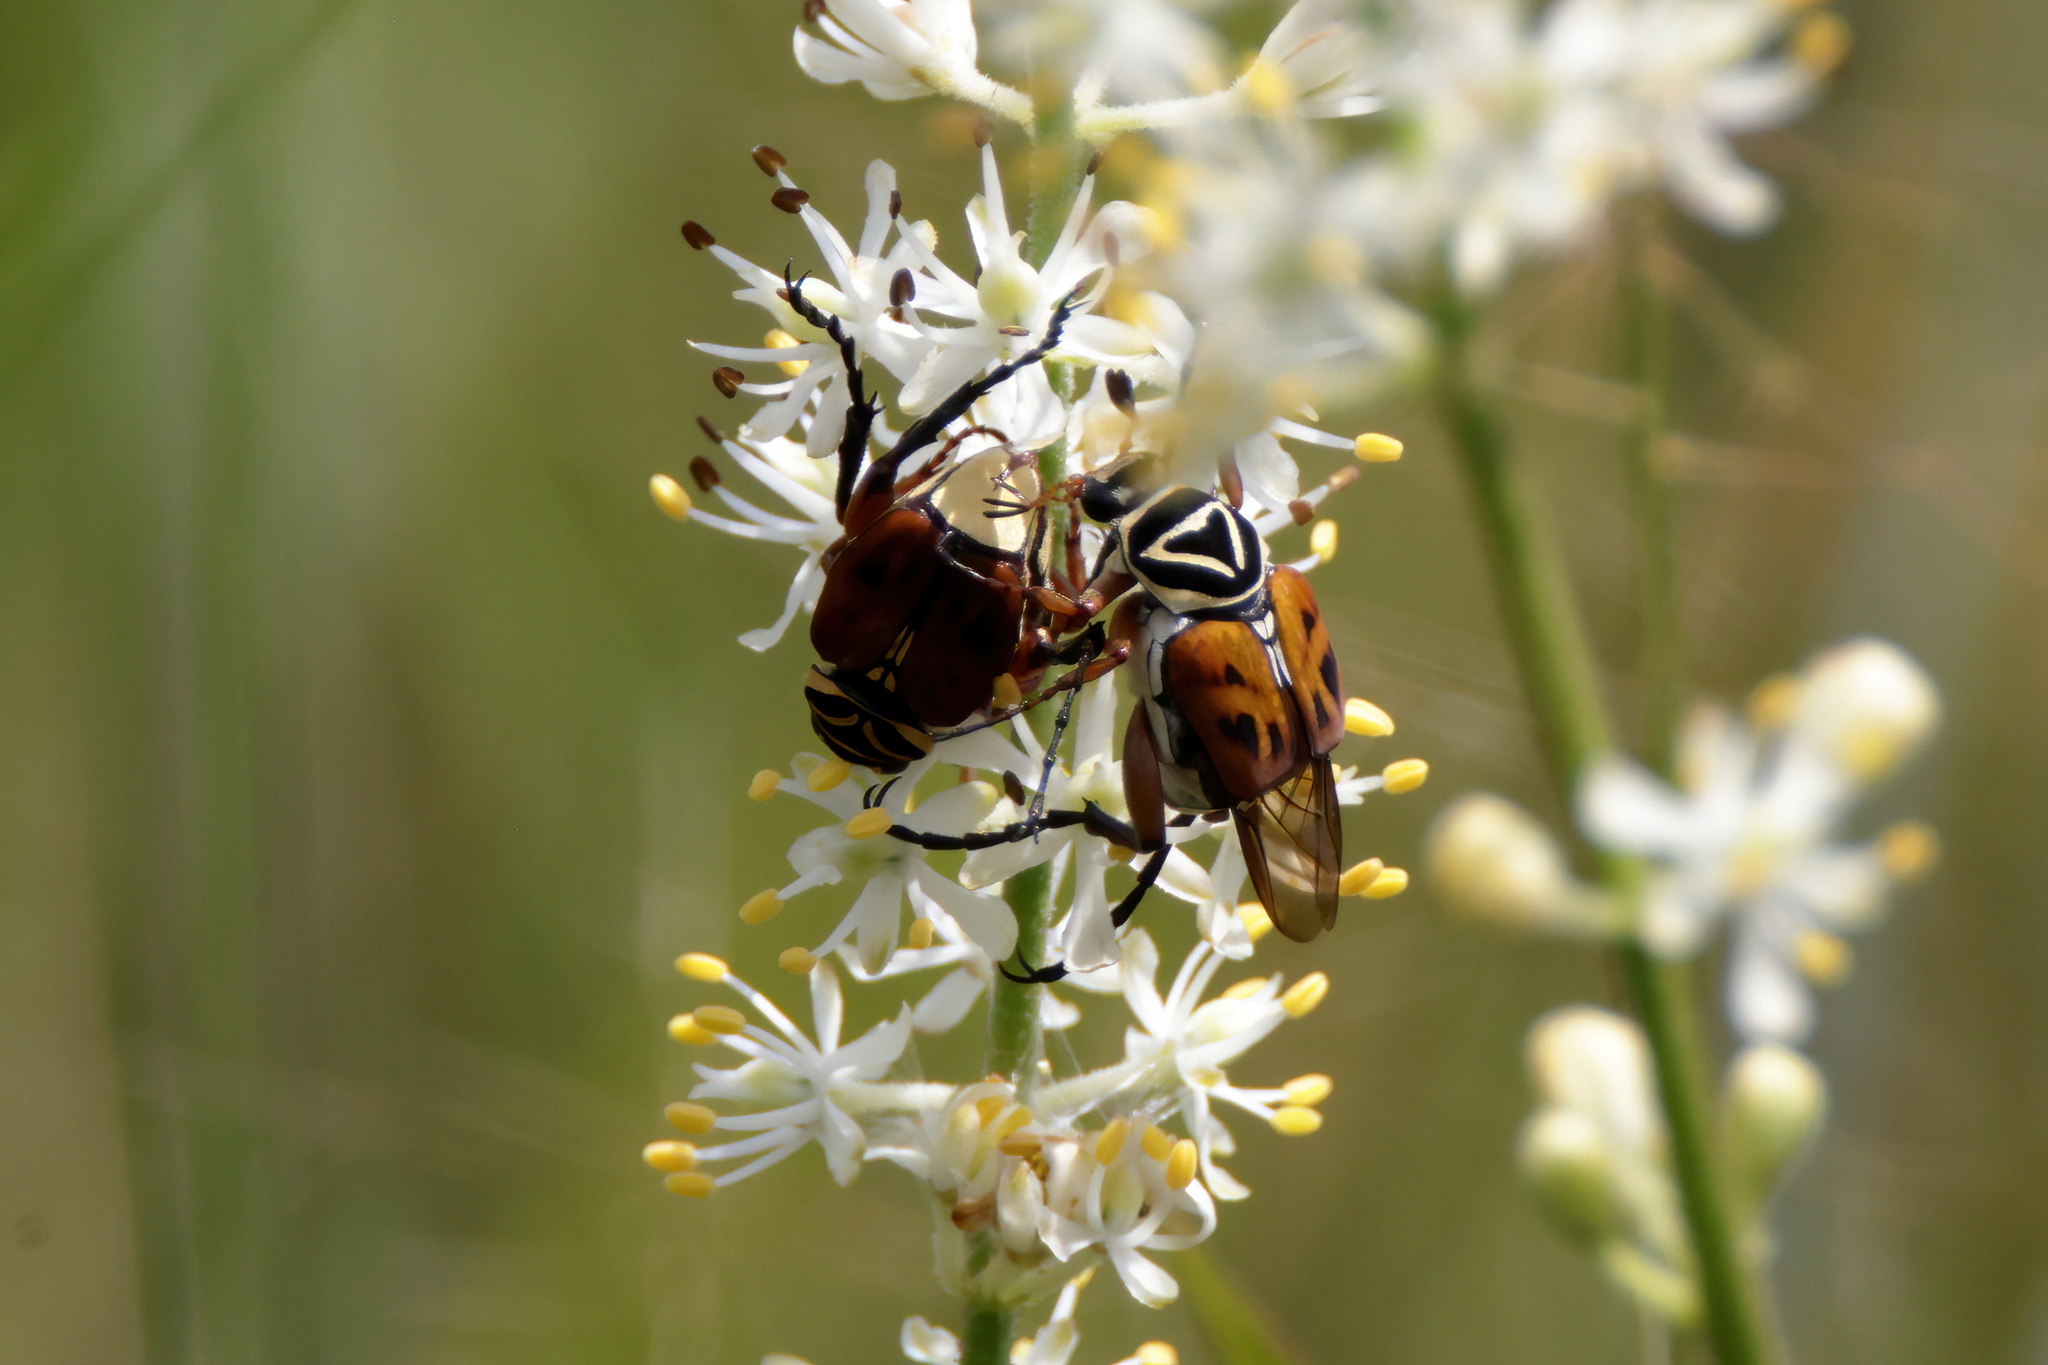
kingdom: Animalia
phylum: Arthropoda
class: Insecta
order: Coleoptera
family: Scarabaeidae
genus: Trigonopeltastes
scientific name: Trigonopeltastes delta
